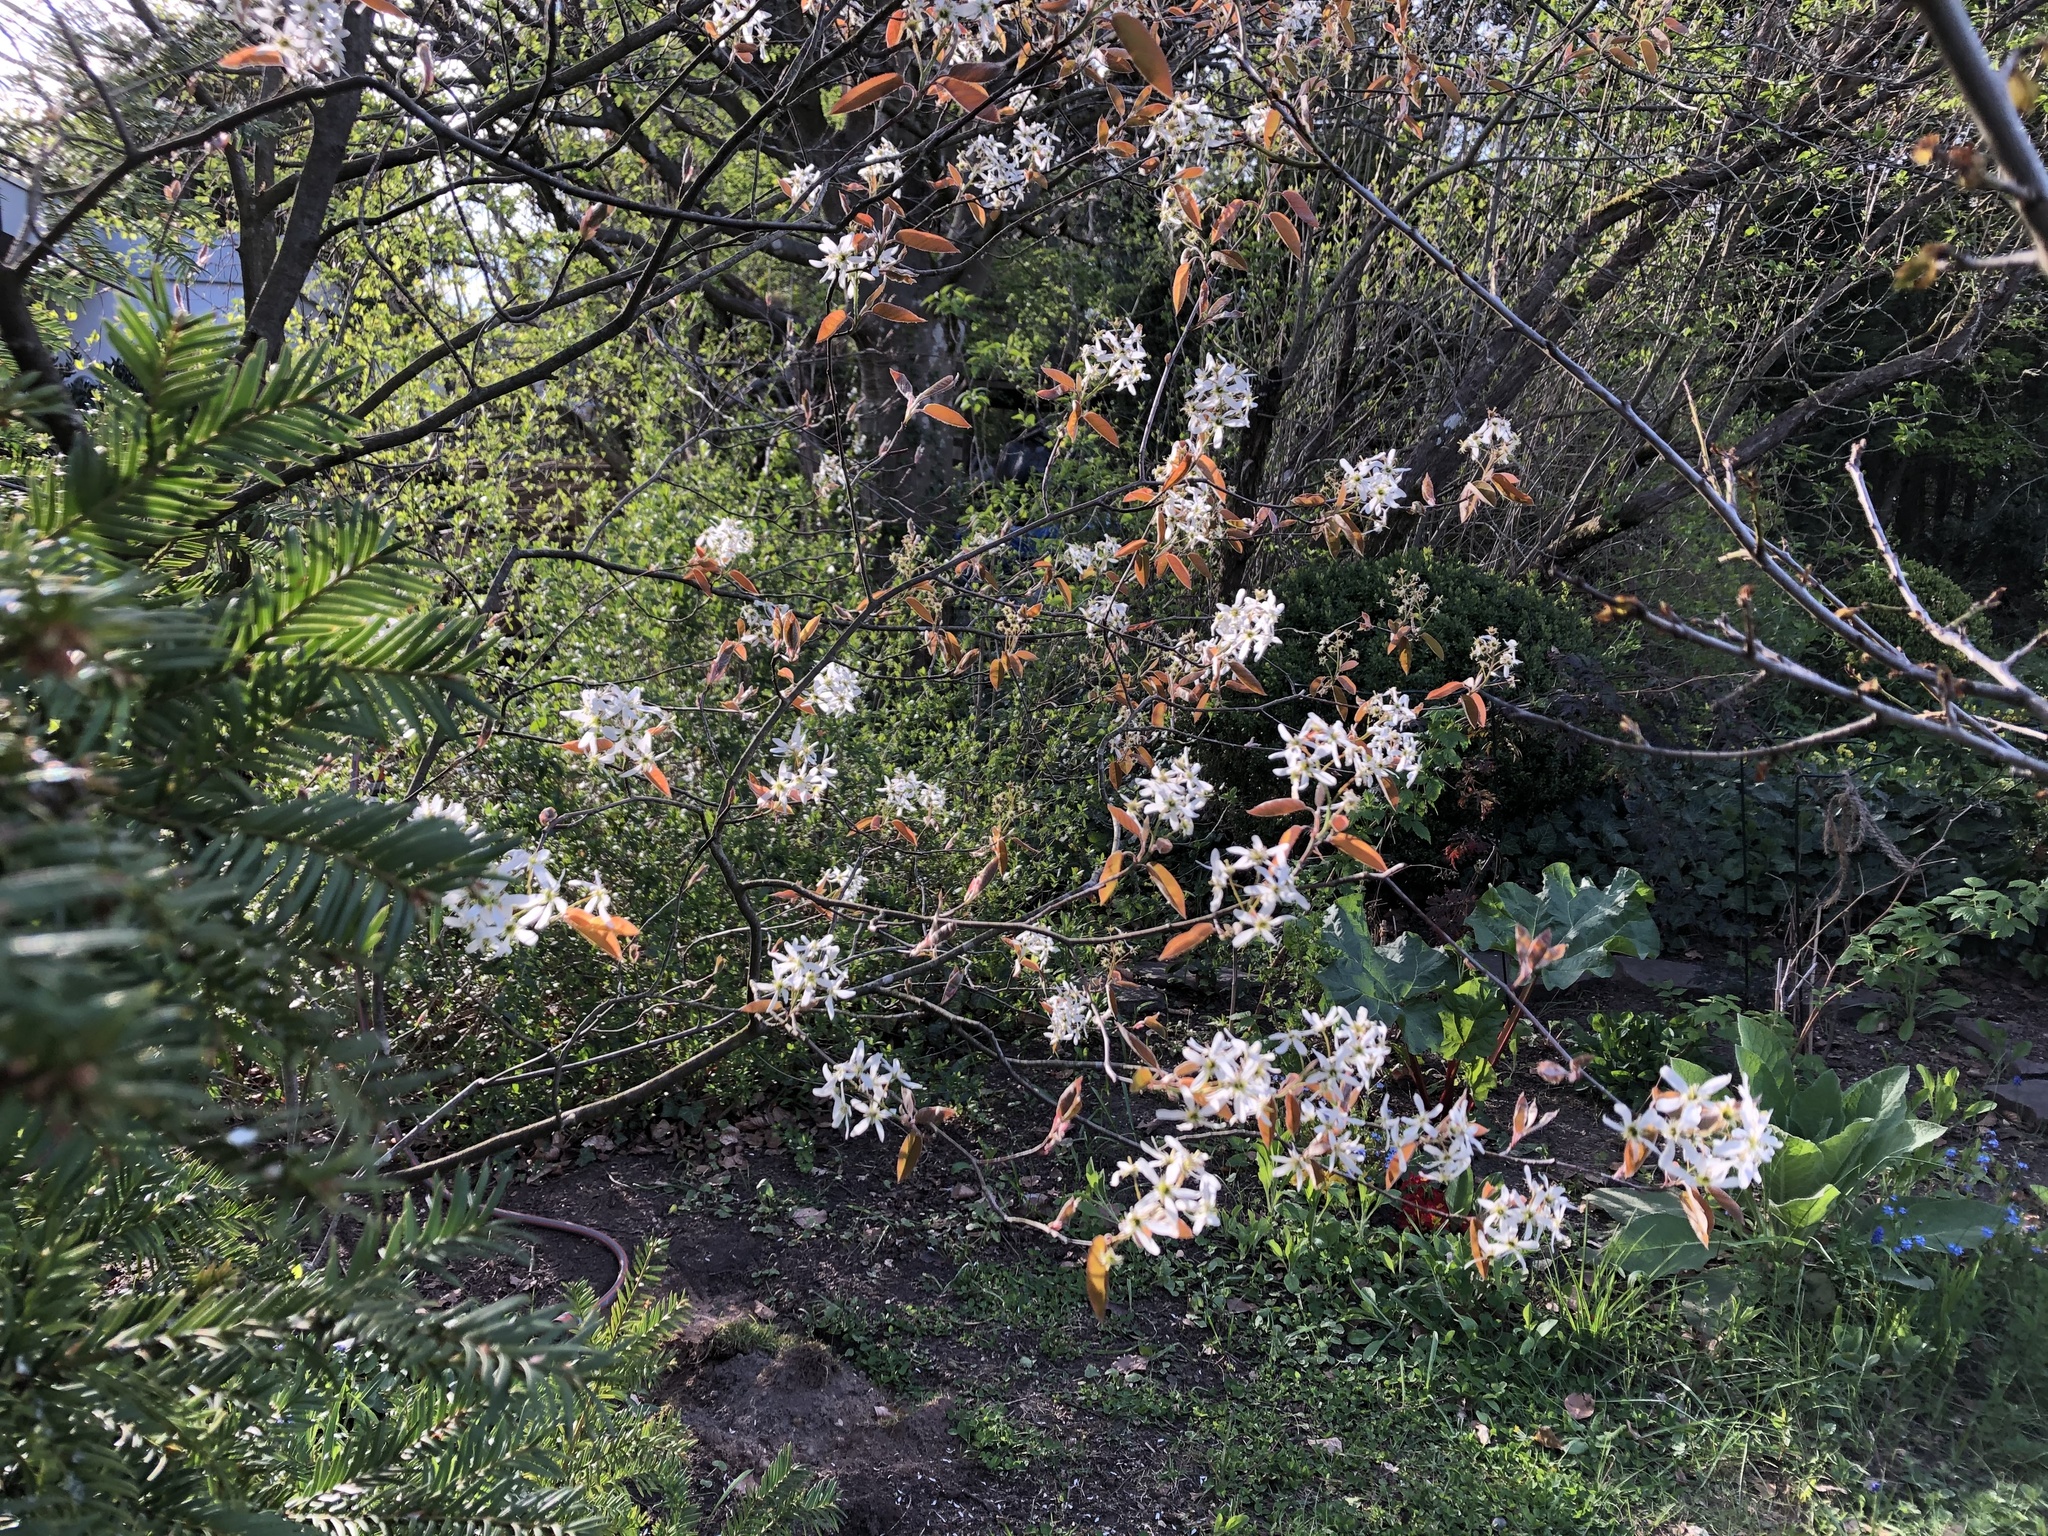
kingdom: Plantae
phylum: Tracheophyta
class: Magnoliopsida
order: Rosales
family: Rosaceae
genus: Amelanchier
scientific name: Amelanchier lamarckii
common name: Juneberry
